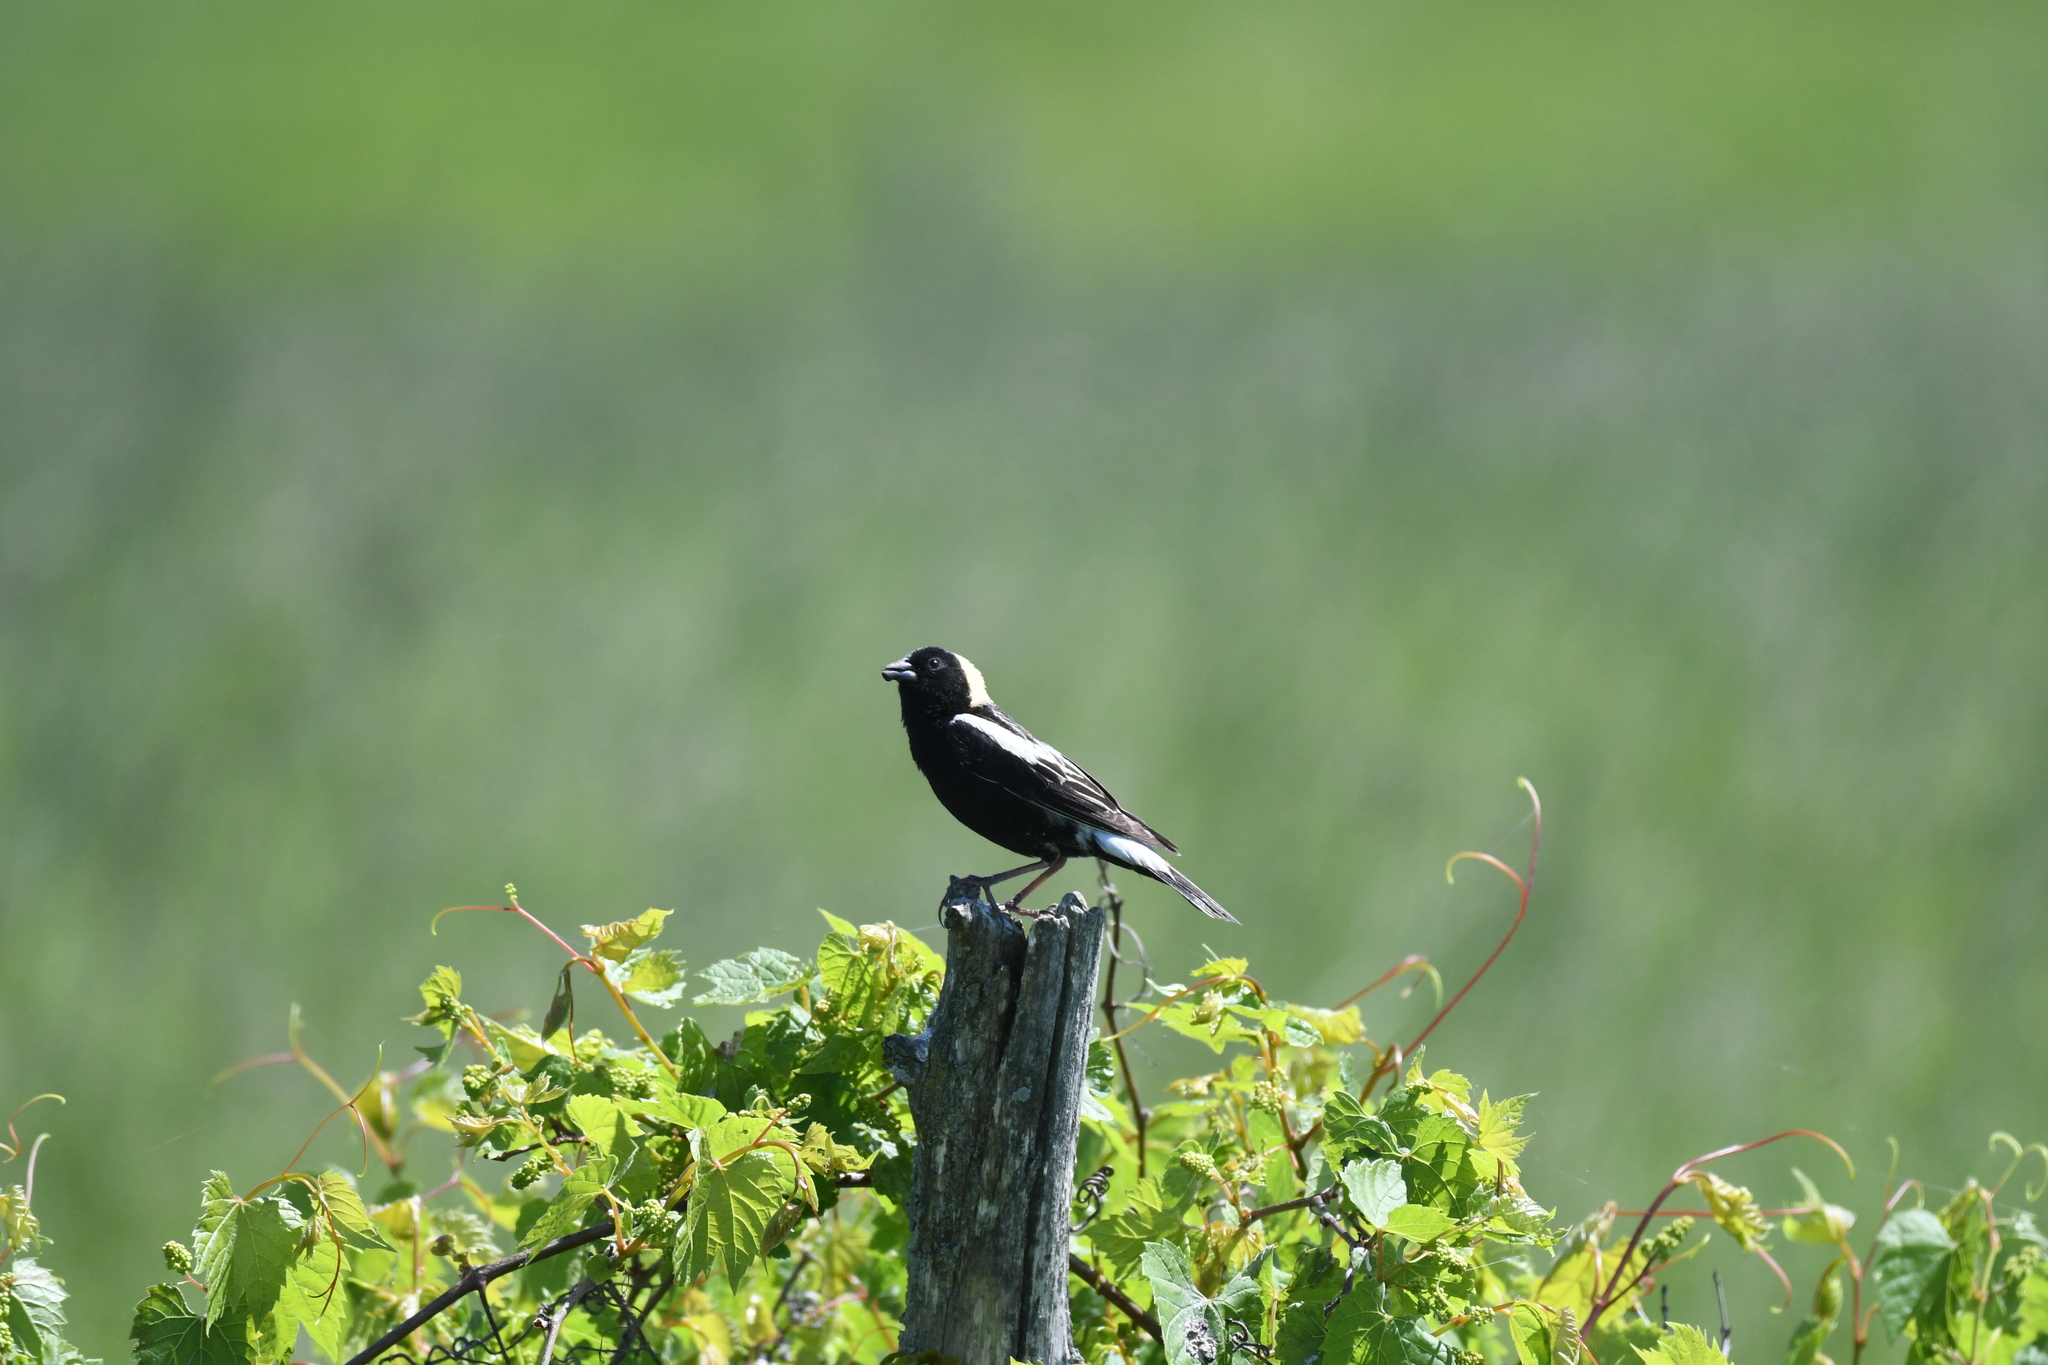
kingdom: Animalia
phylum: Chordata
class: Aves
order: Passeriformes
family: Icteridae
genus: Dolichonyx
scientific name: Dolichonyx oryzivorus
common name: Bobolink
